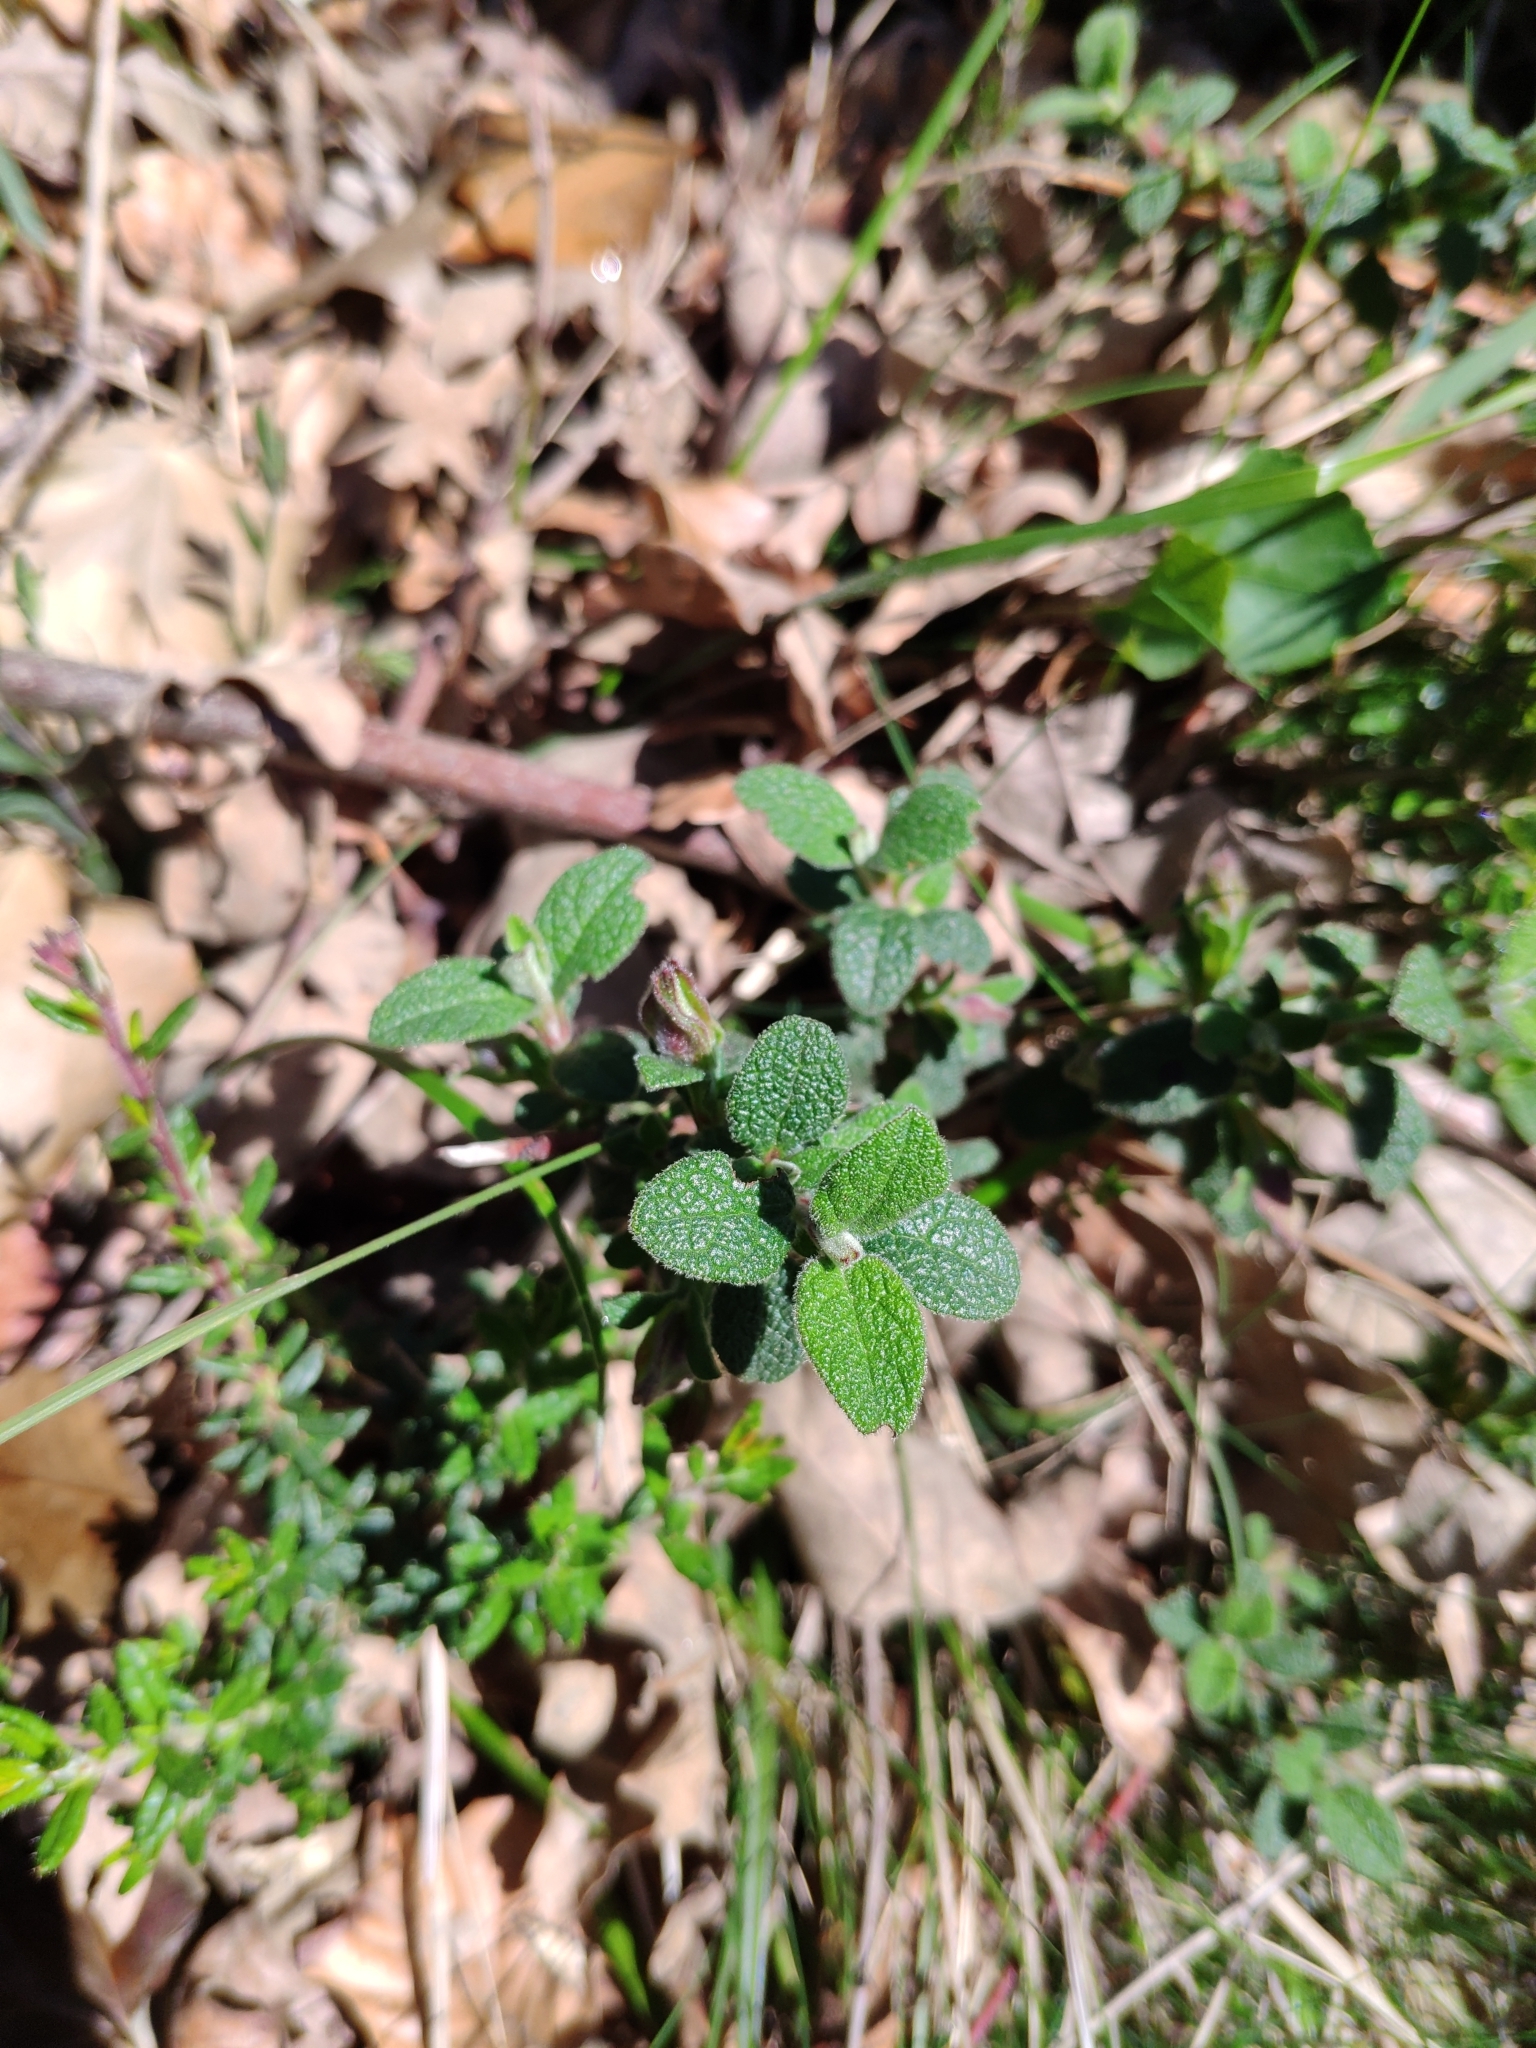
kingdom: Plantae
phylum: Tracheophyta
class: Magnoliopsida
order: Malvales
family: Cistaceae
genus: Cistus
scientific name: Cistus salviifolius
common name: Salvia cistus
